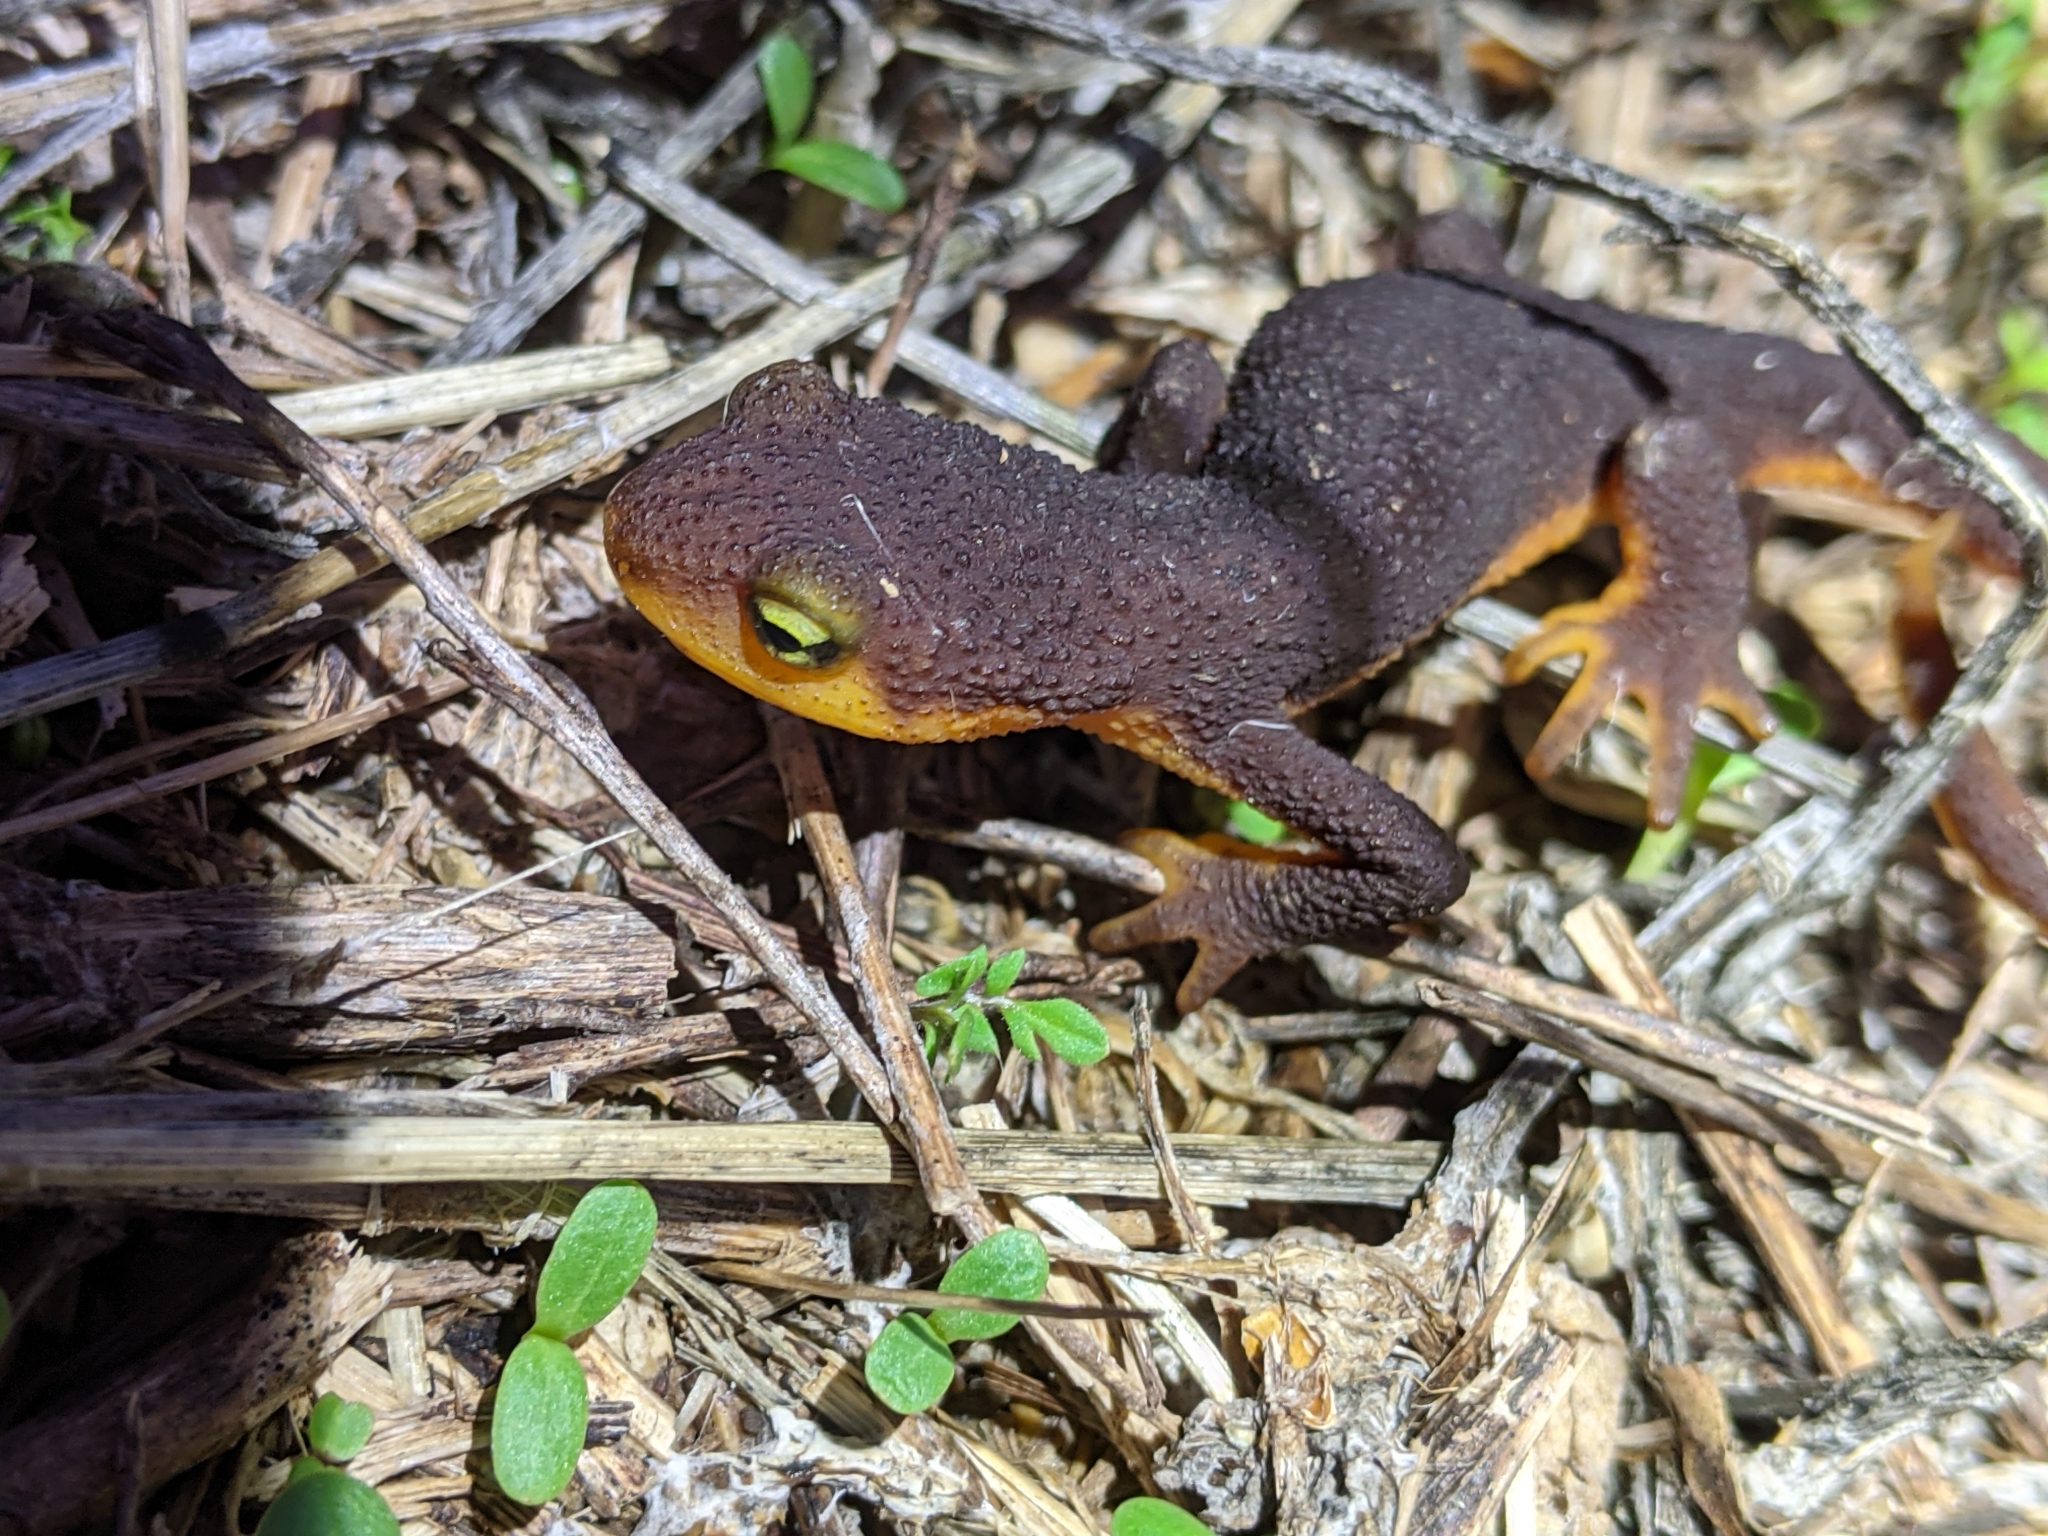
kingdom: Animalia
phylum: Chordata
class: Amphibia
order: Caudata
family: Salamandridae
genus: Taricha
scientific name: Taricha torosa
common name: California newt
